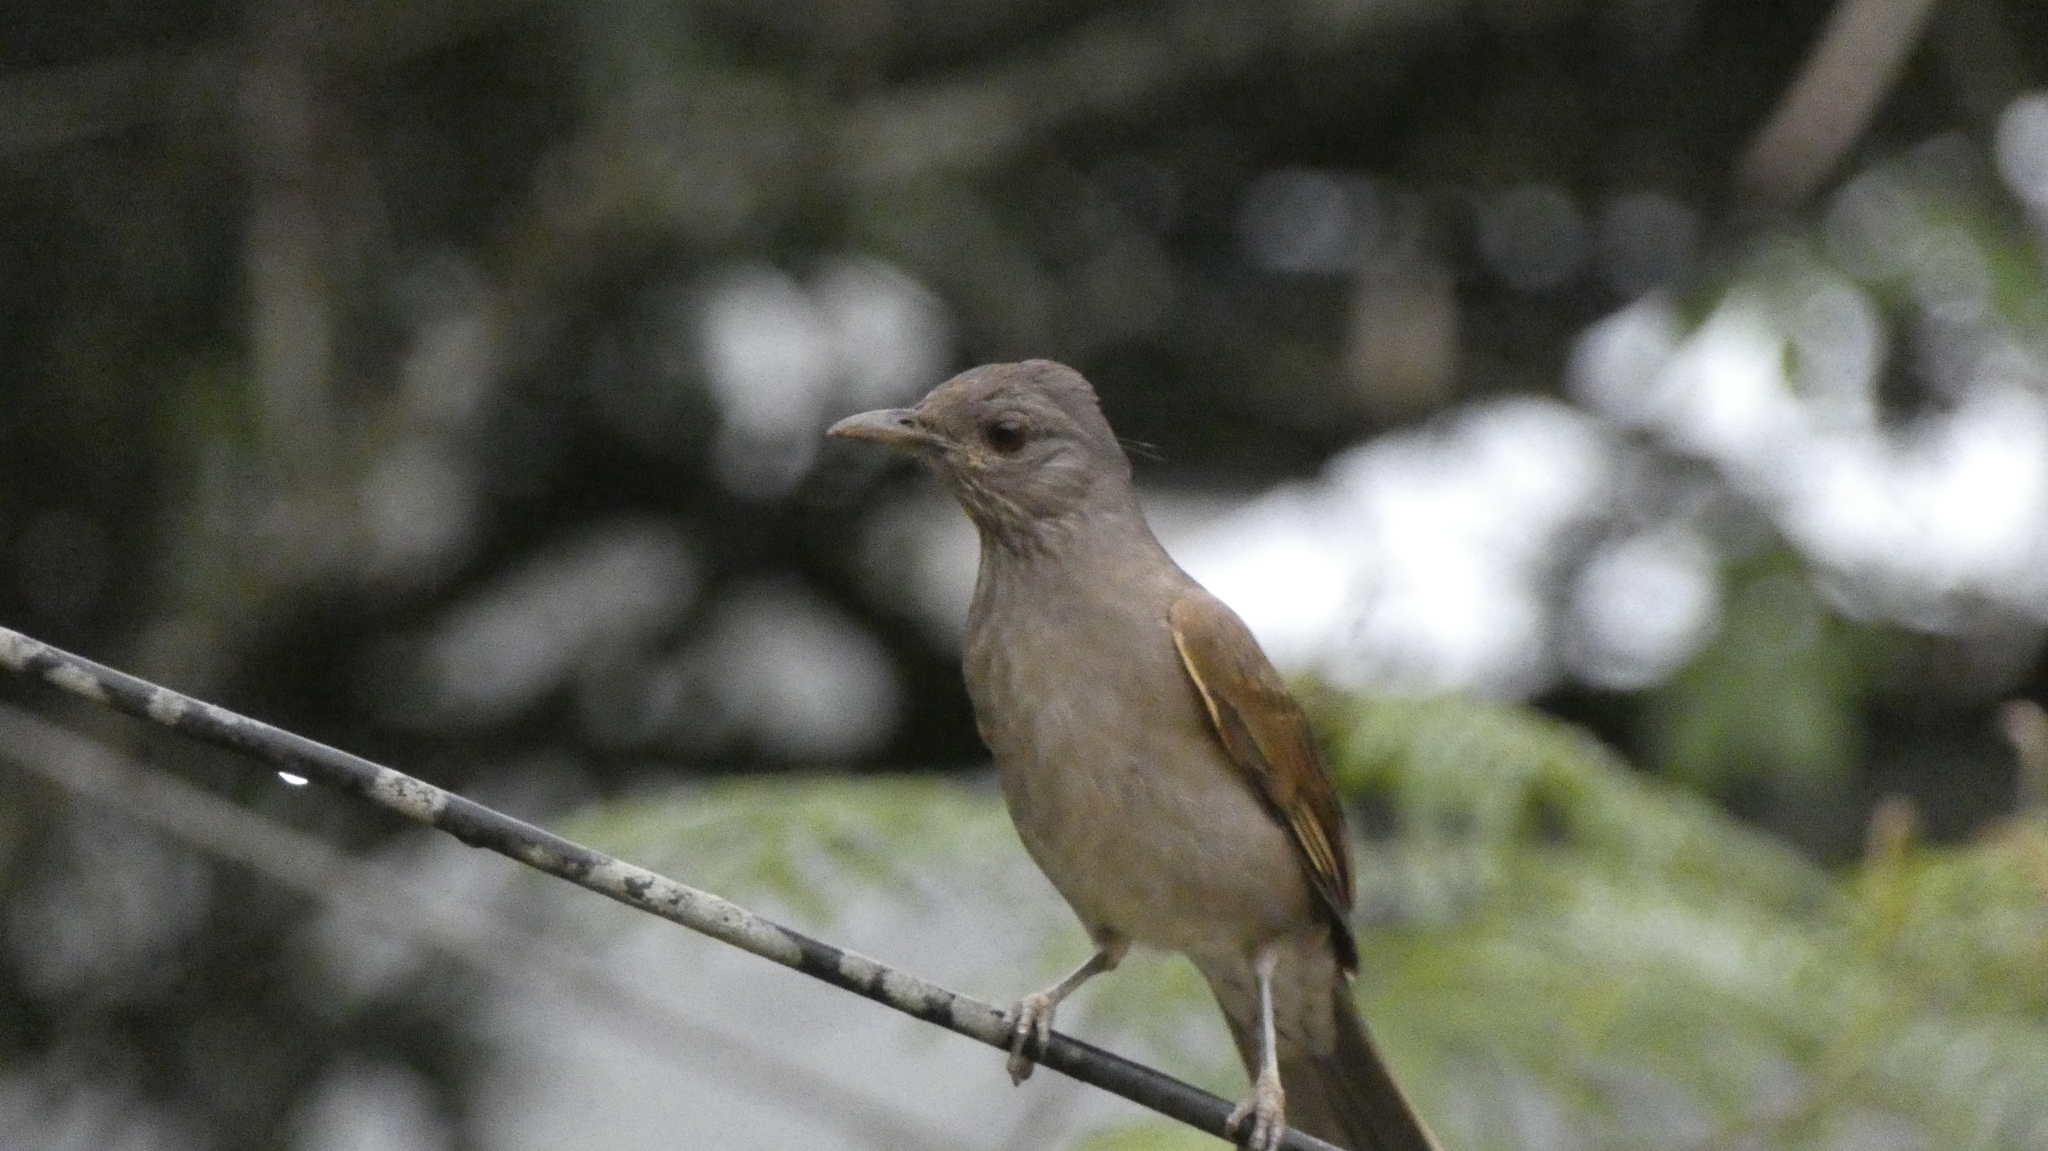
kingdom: Animalia
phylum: Chordata
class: Aves
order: Passeriformes
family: Turdidae
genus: Turdus
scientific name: Turdus leucomelas
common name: Pale-breasted thrush
